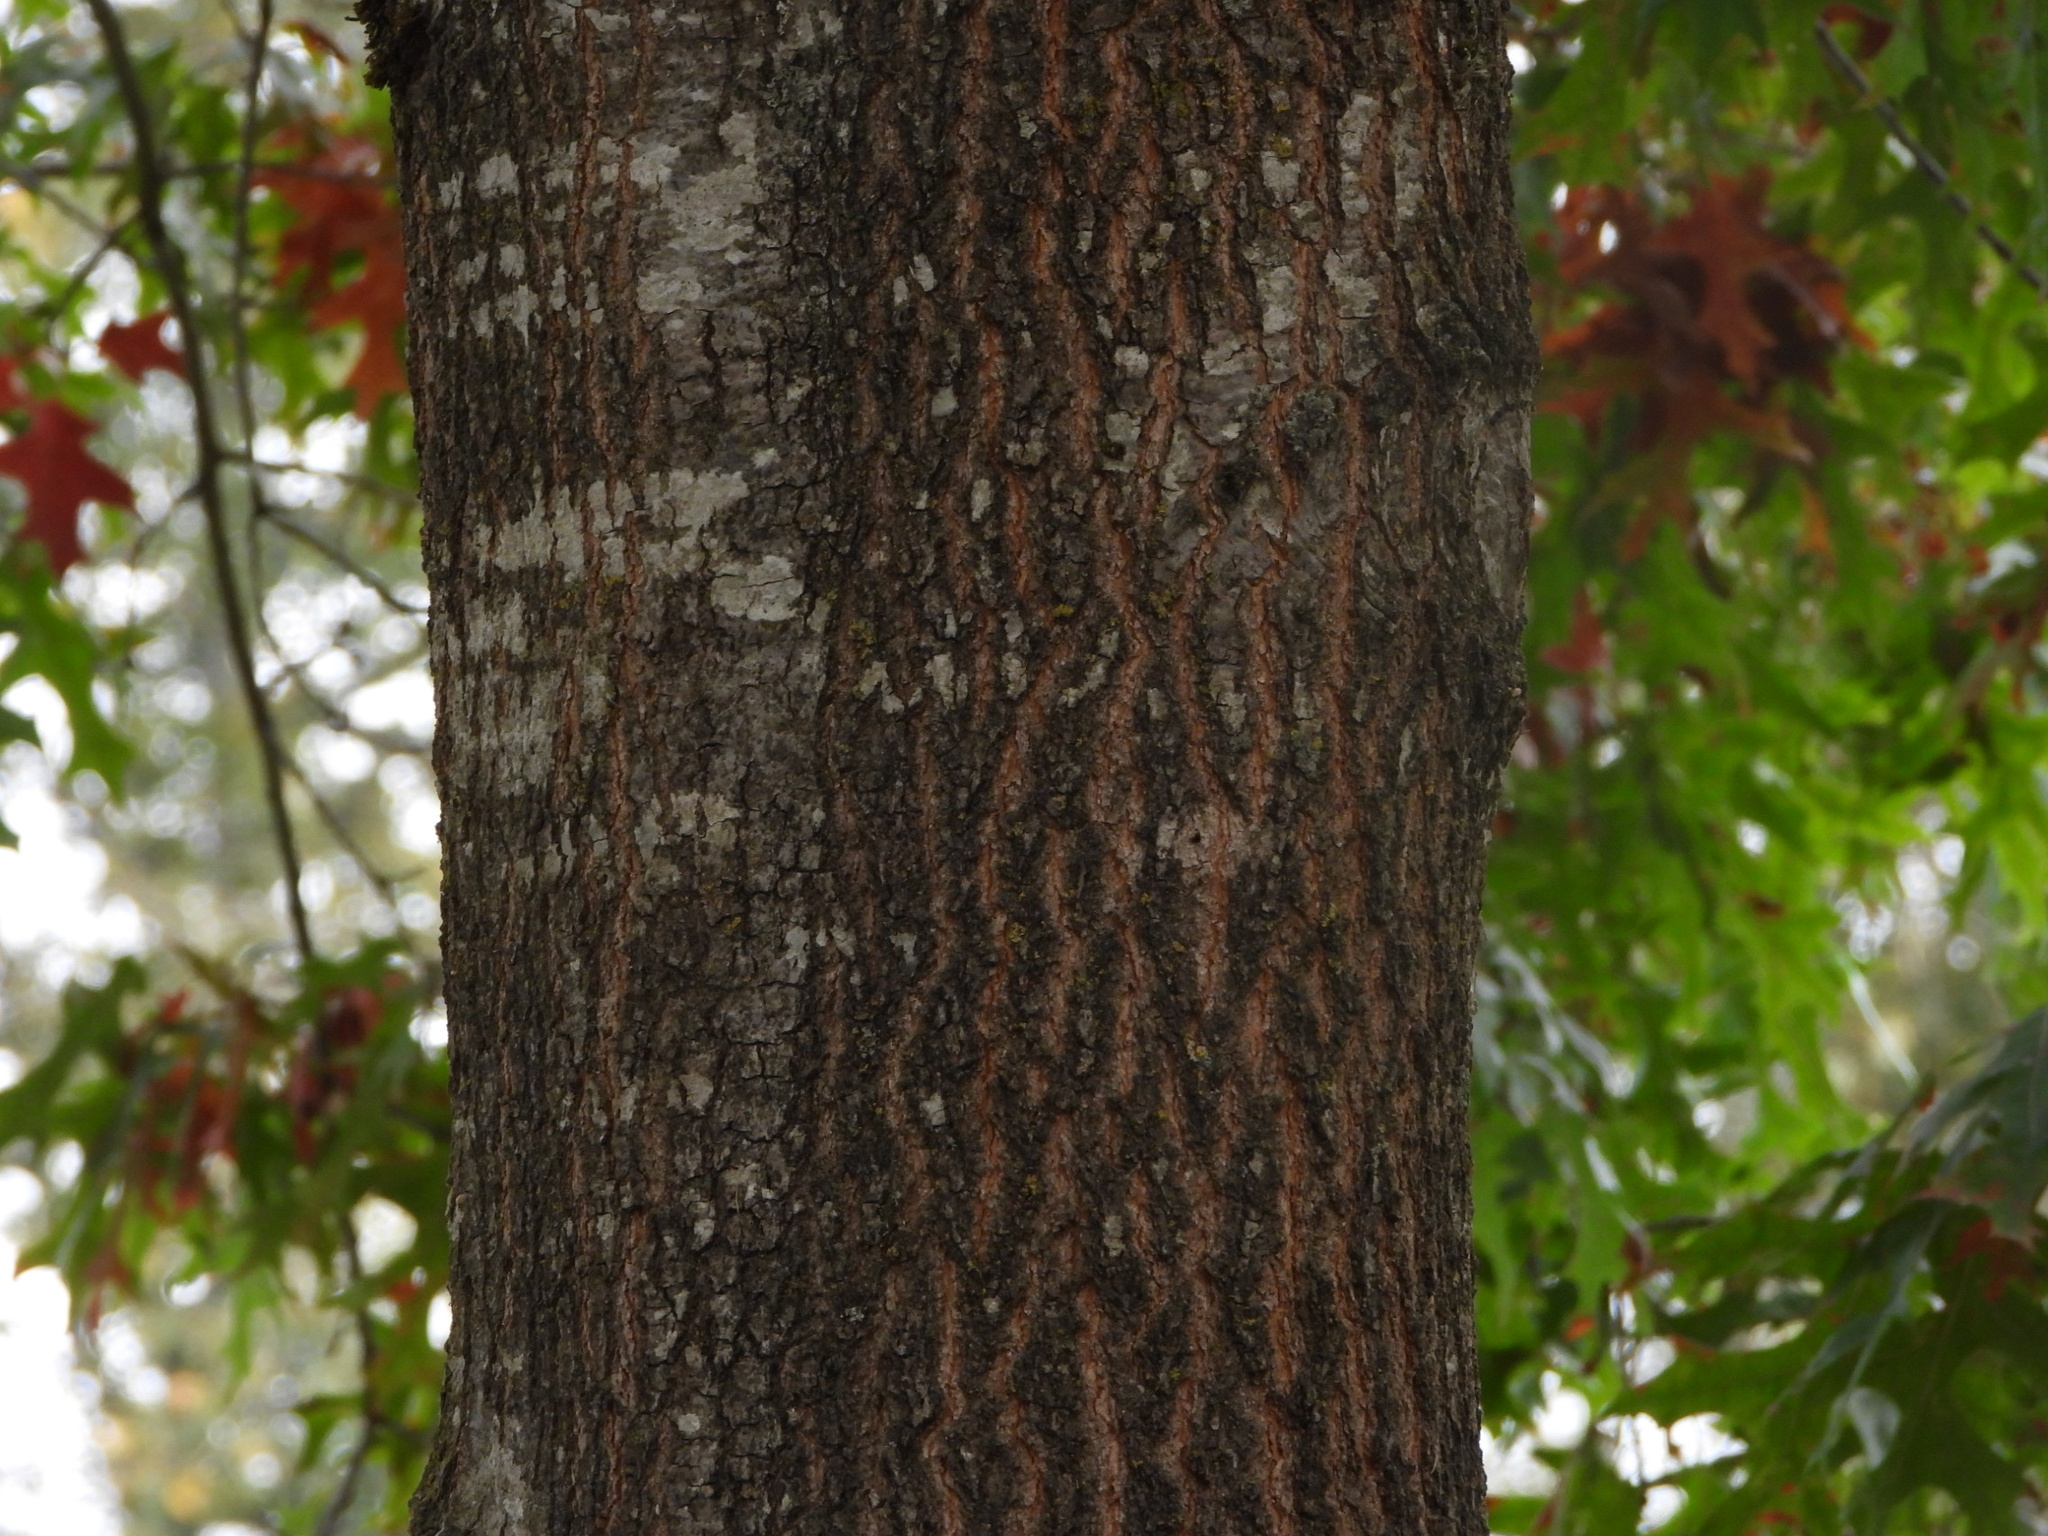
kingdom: Plantae
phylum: Tracheophyta
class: Magnoliopsida
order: Fagales
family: Fagaceae
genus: Quercus
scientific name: Quercus rubra
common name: Red oak
